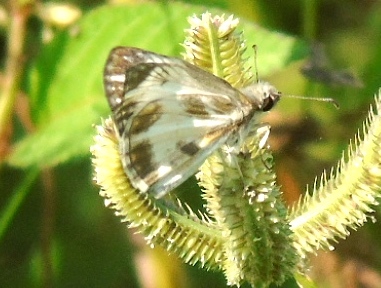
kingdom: Animalia
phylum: Arthropoda
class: Insecta
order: Lepidoptera
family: Hesperiidae
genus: Heliopetes
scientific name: Heliopetes macaira
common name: Turk's-cap white-skipper
